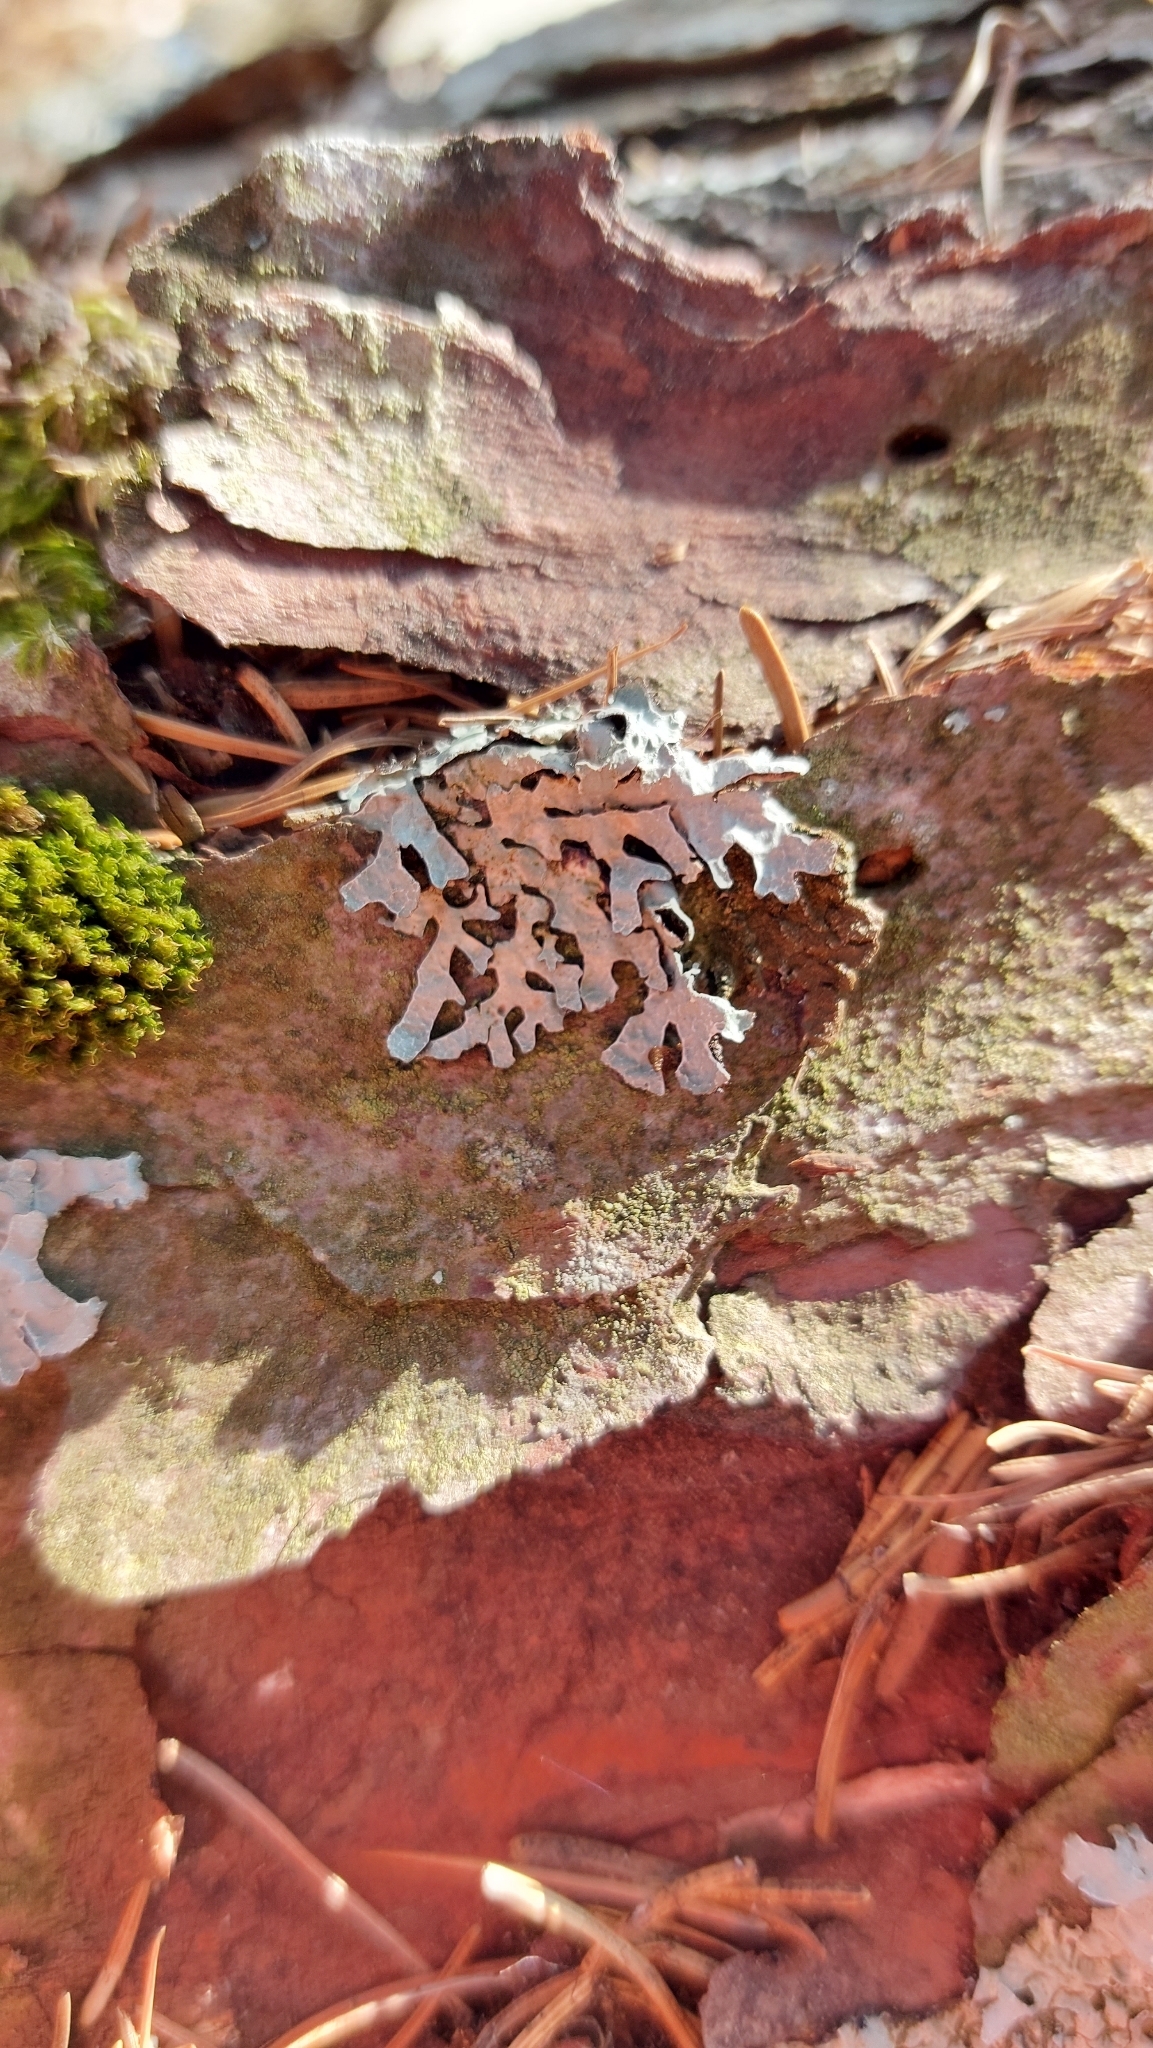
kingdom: Fungi
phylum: Ascomycota
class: Lecanoromycetes
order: Lecanorales
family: Parmeliaceae
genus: Parmelia
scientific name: Parmelia sulcata
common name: Netted shield lichen
